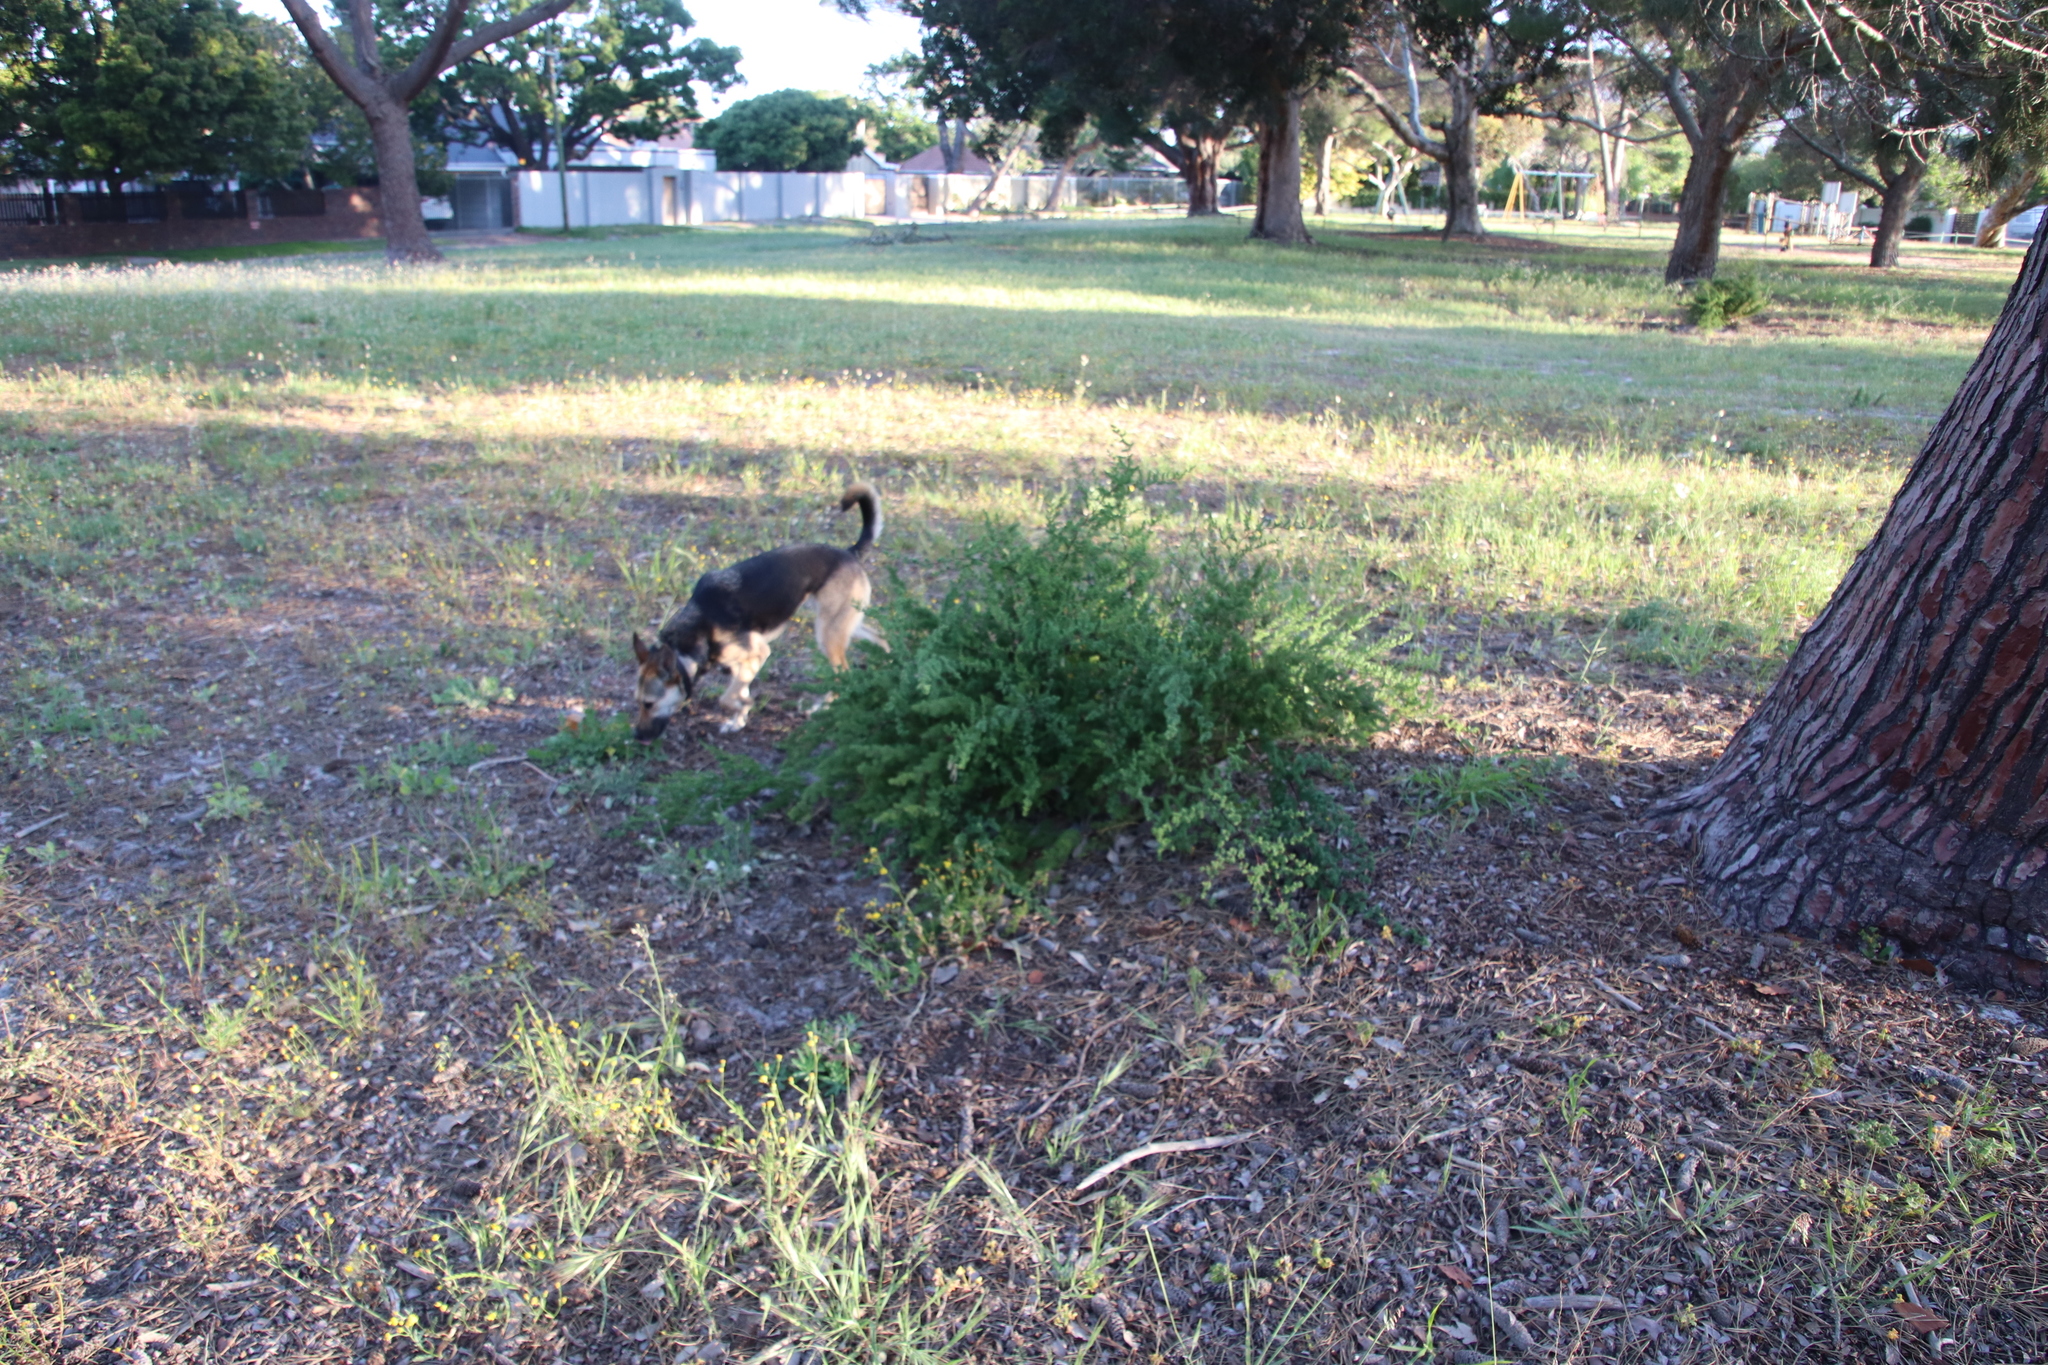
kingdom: Plantae
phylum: Tracheophyta
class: Liliopsida
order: Asparagales
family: Asparagaceae
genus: Asparagus
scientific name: Asparagus rubicundus
